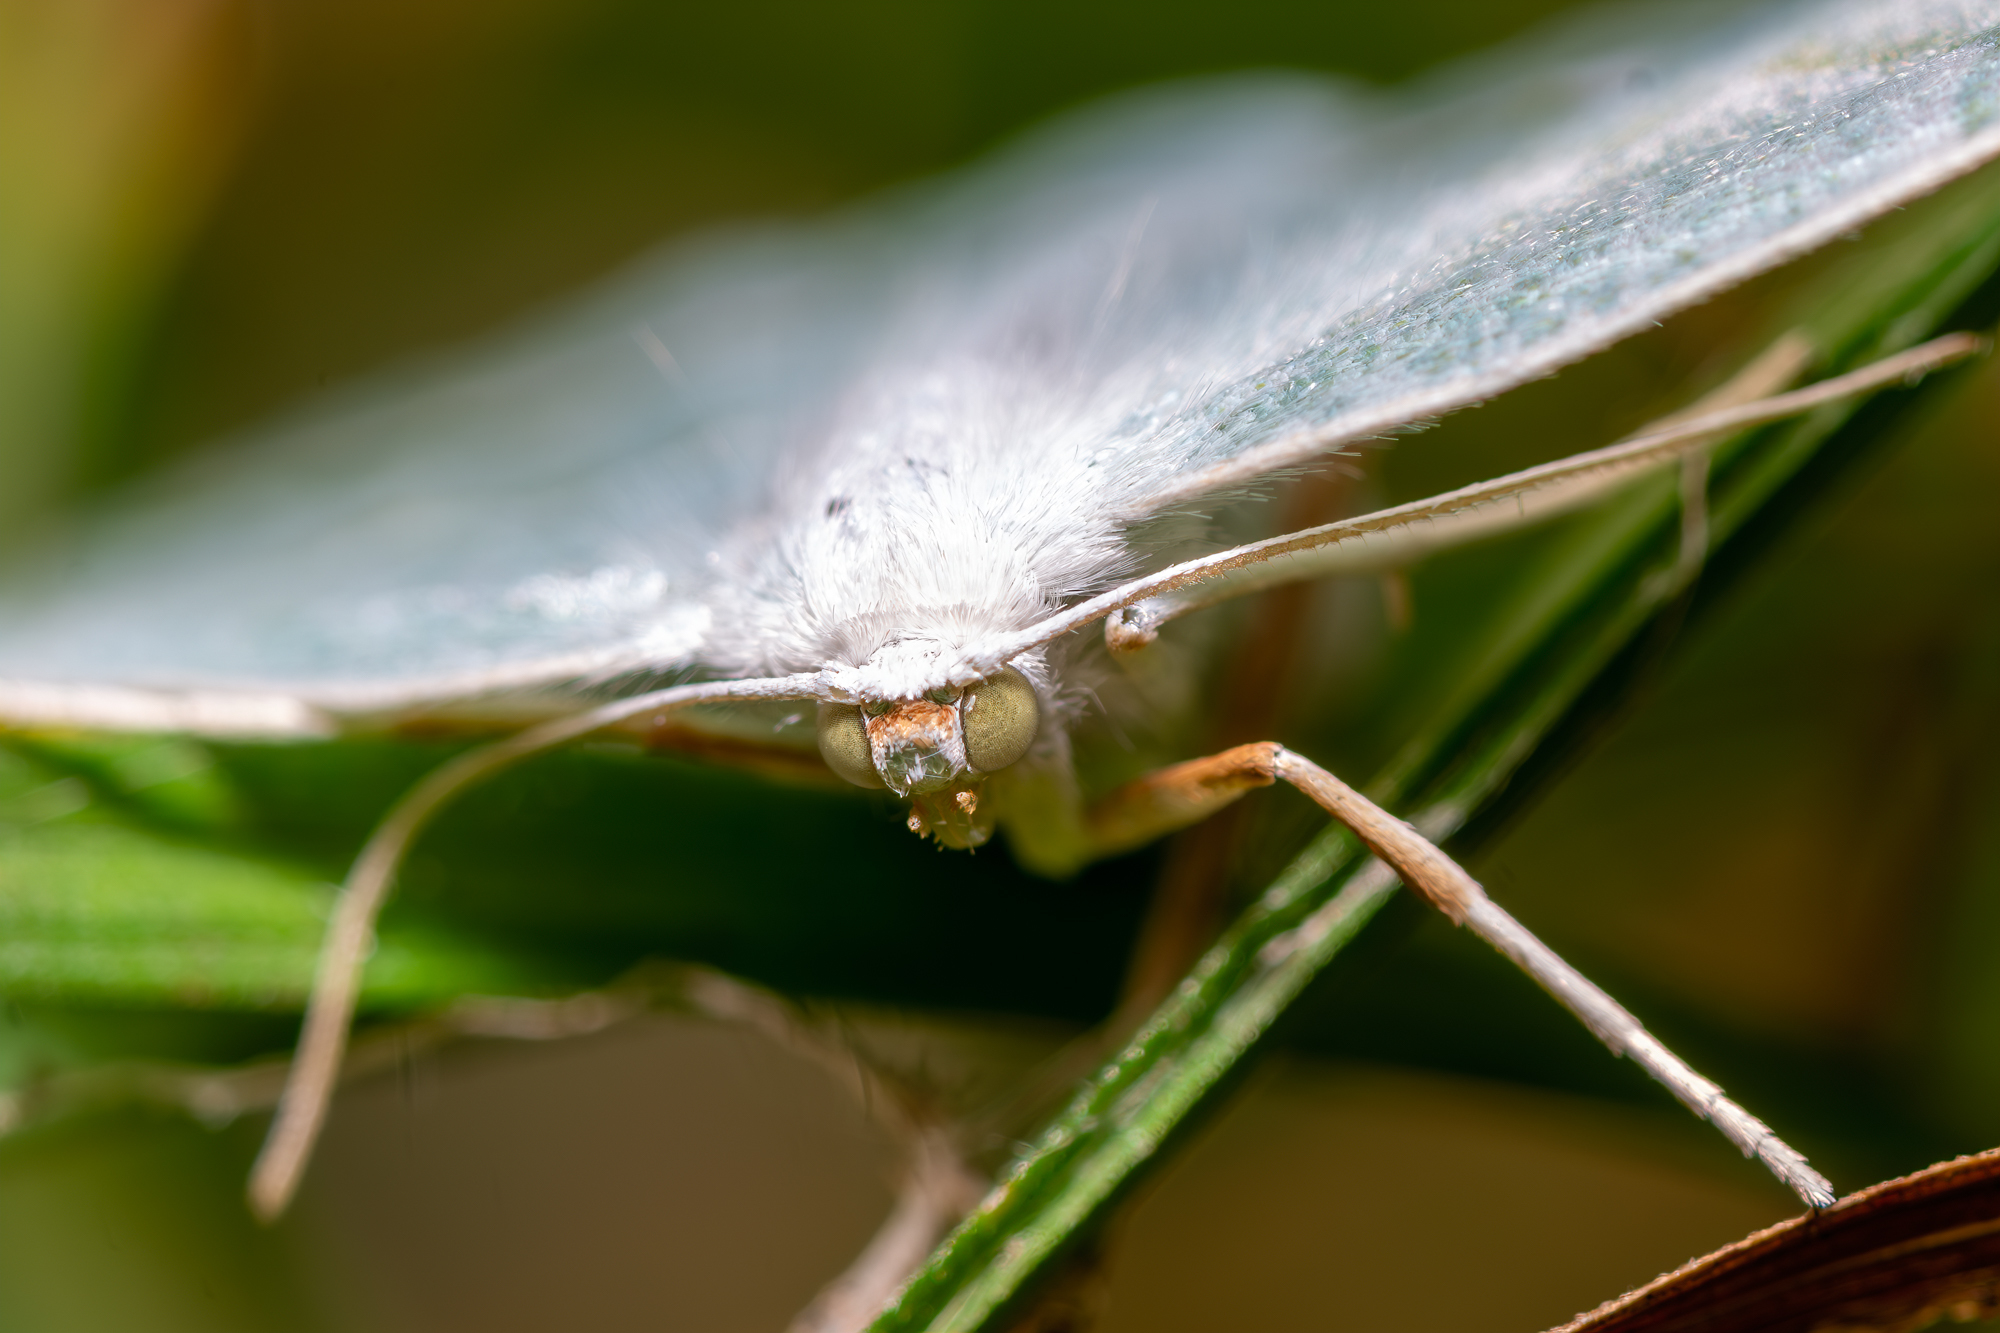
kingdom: Animalia
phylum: Arthropoda
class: Insecta
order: Lepidoptera
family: Geometridae
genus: Campaea
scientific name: Campaea perlata
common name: Fringed looper
